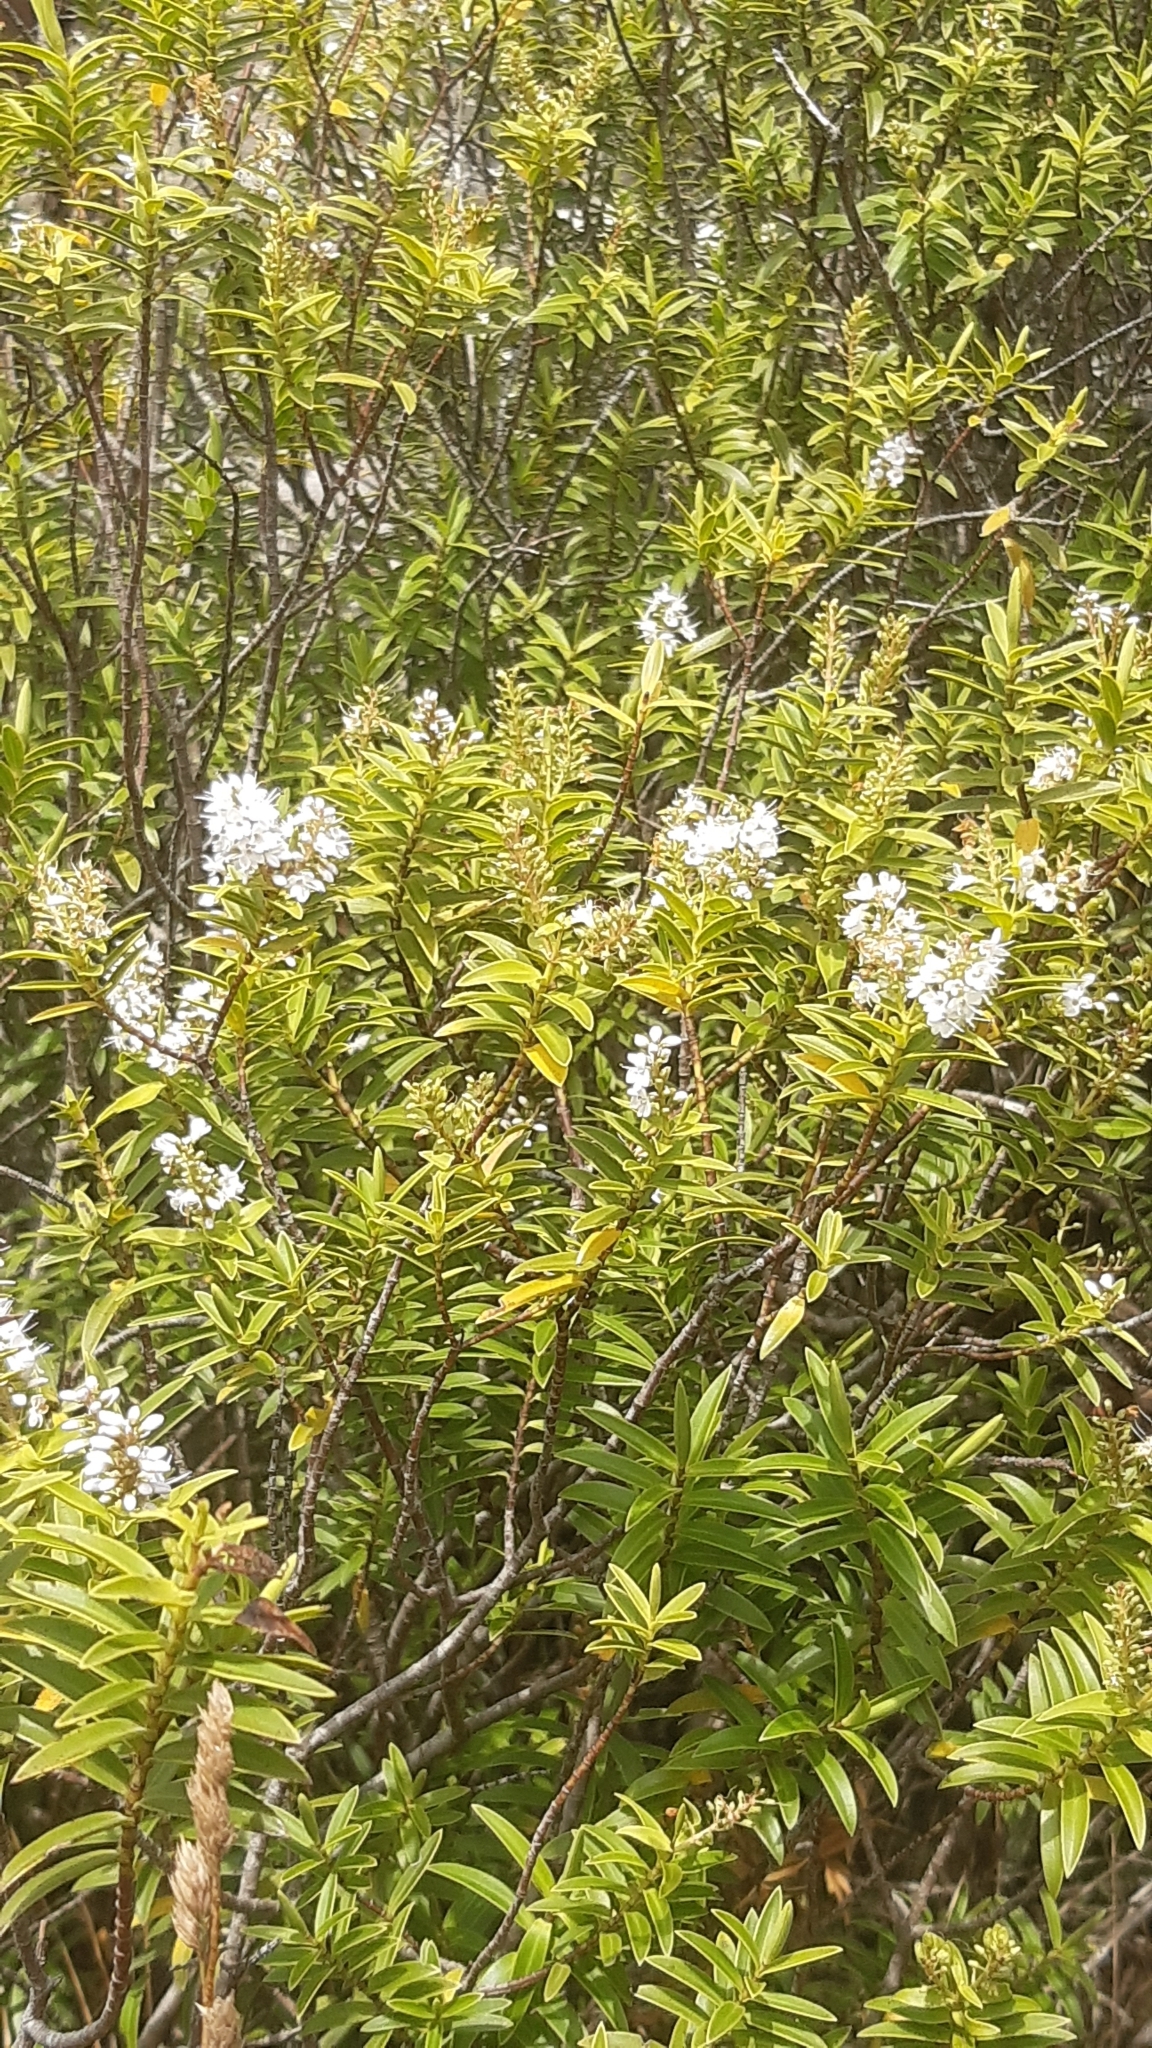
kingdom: Plantae
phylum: Tracheophyta
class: Magnoliopsida
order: Lamiales
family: Plantaginaceae
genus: Veronica
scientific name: Veronica strictissima
